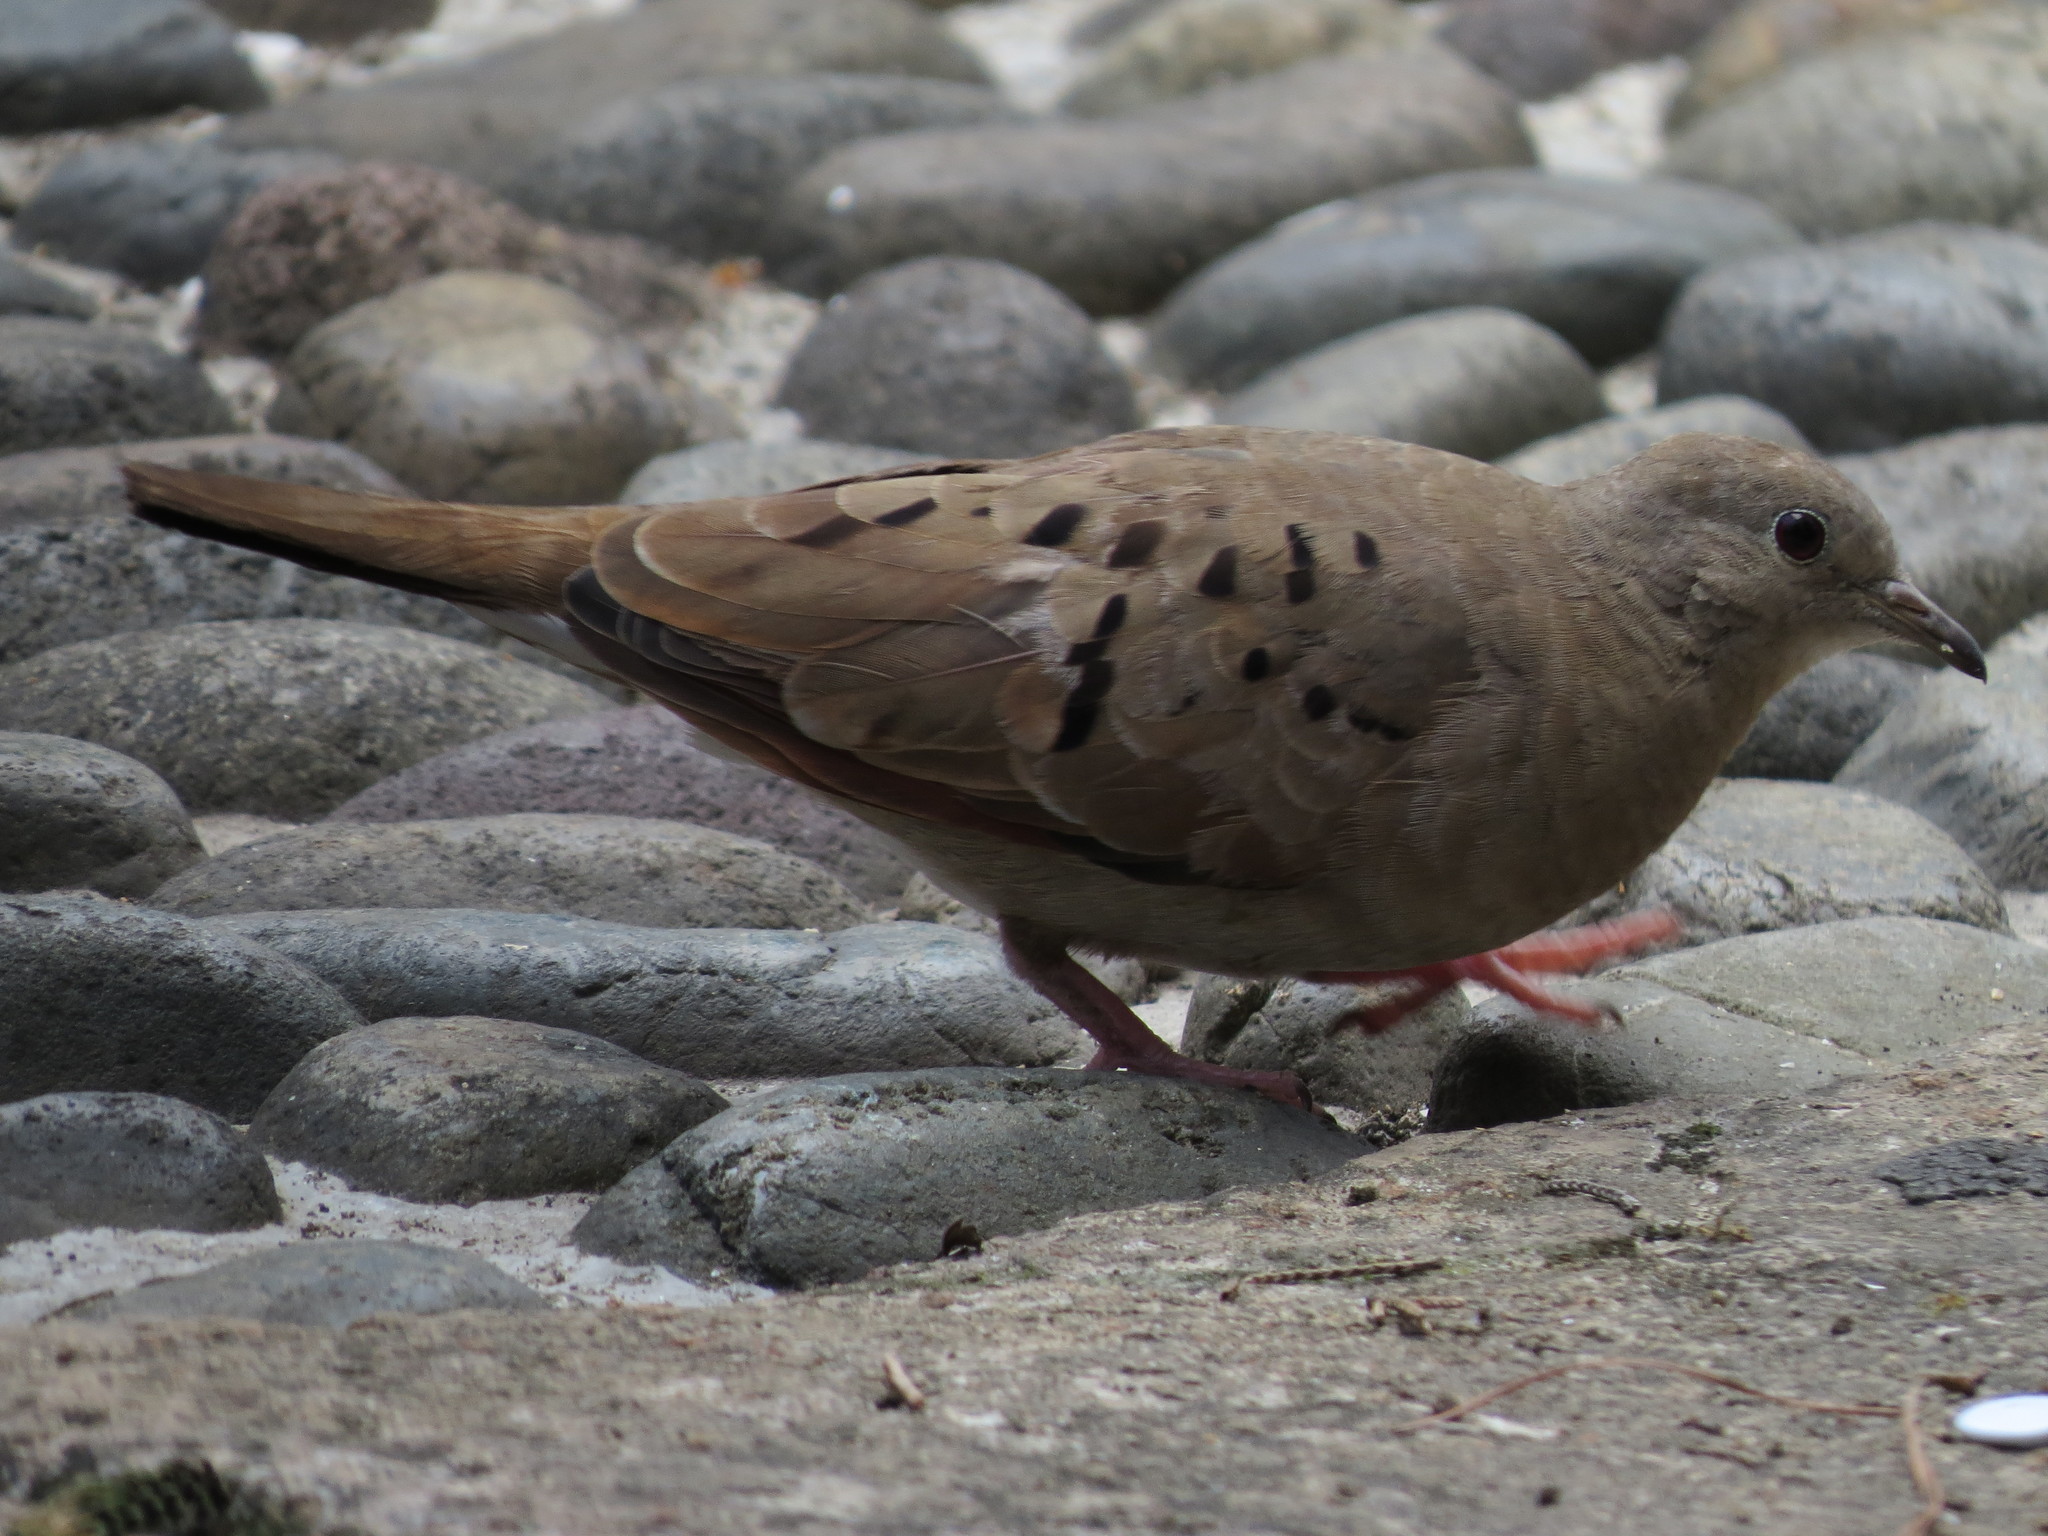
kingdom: Animalia
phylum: Chordata
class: Aves
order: Columbiformes
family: Columbidae
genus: Columbina
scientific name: Columbina talpacoti
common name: Ruddy ground dove
